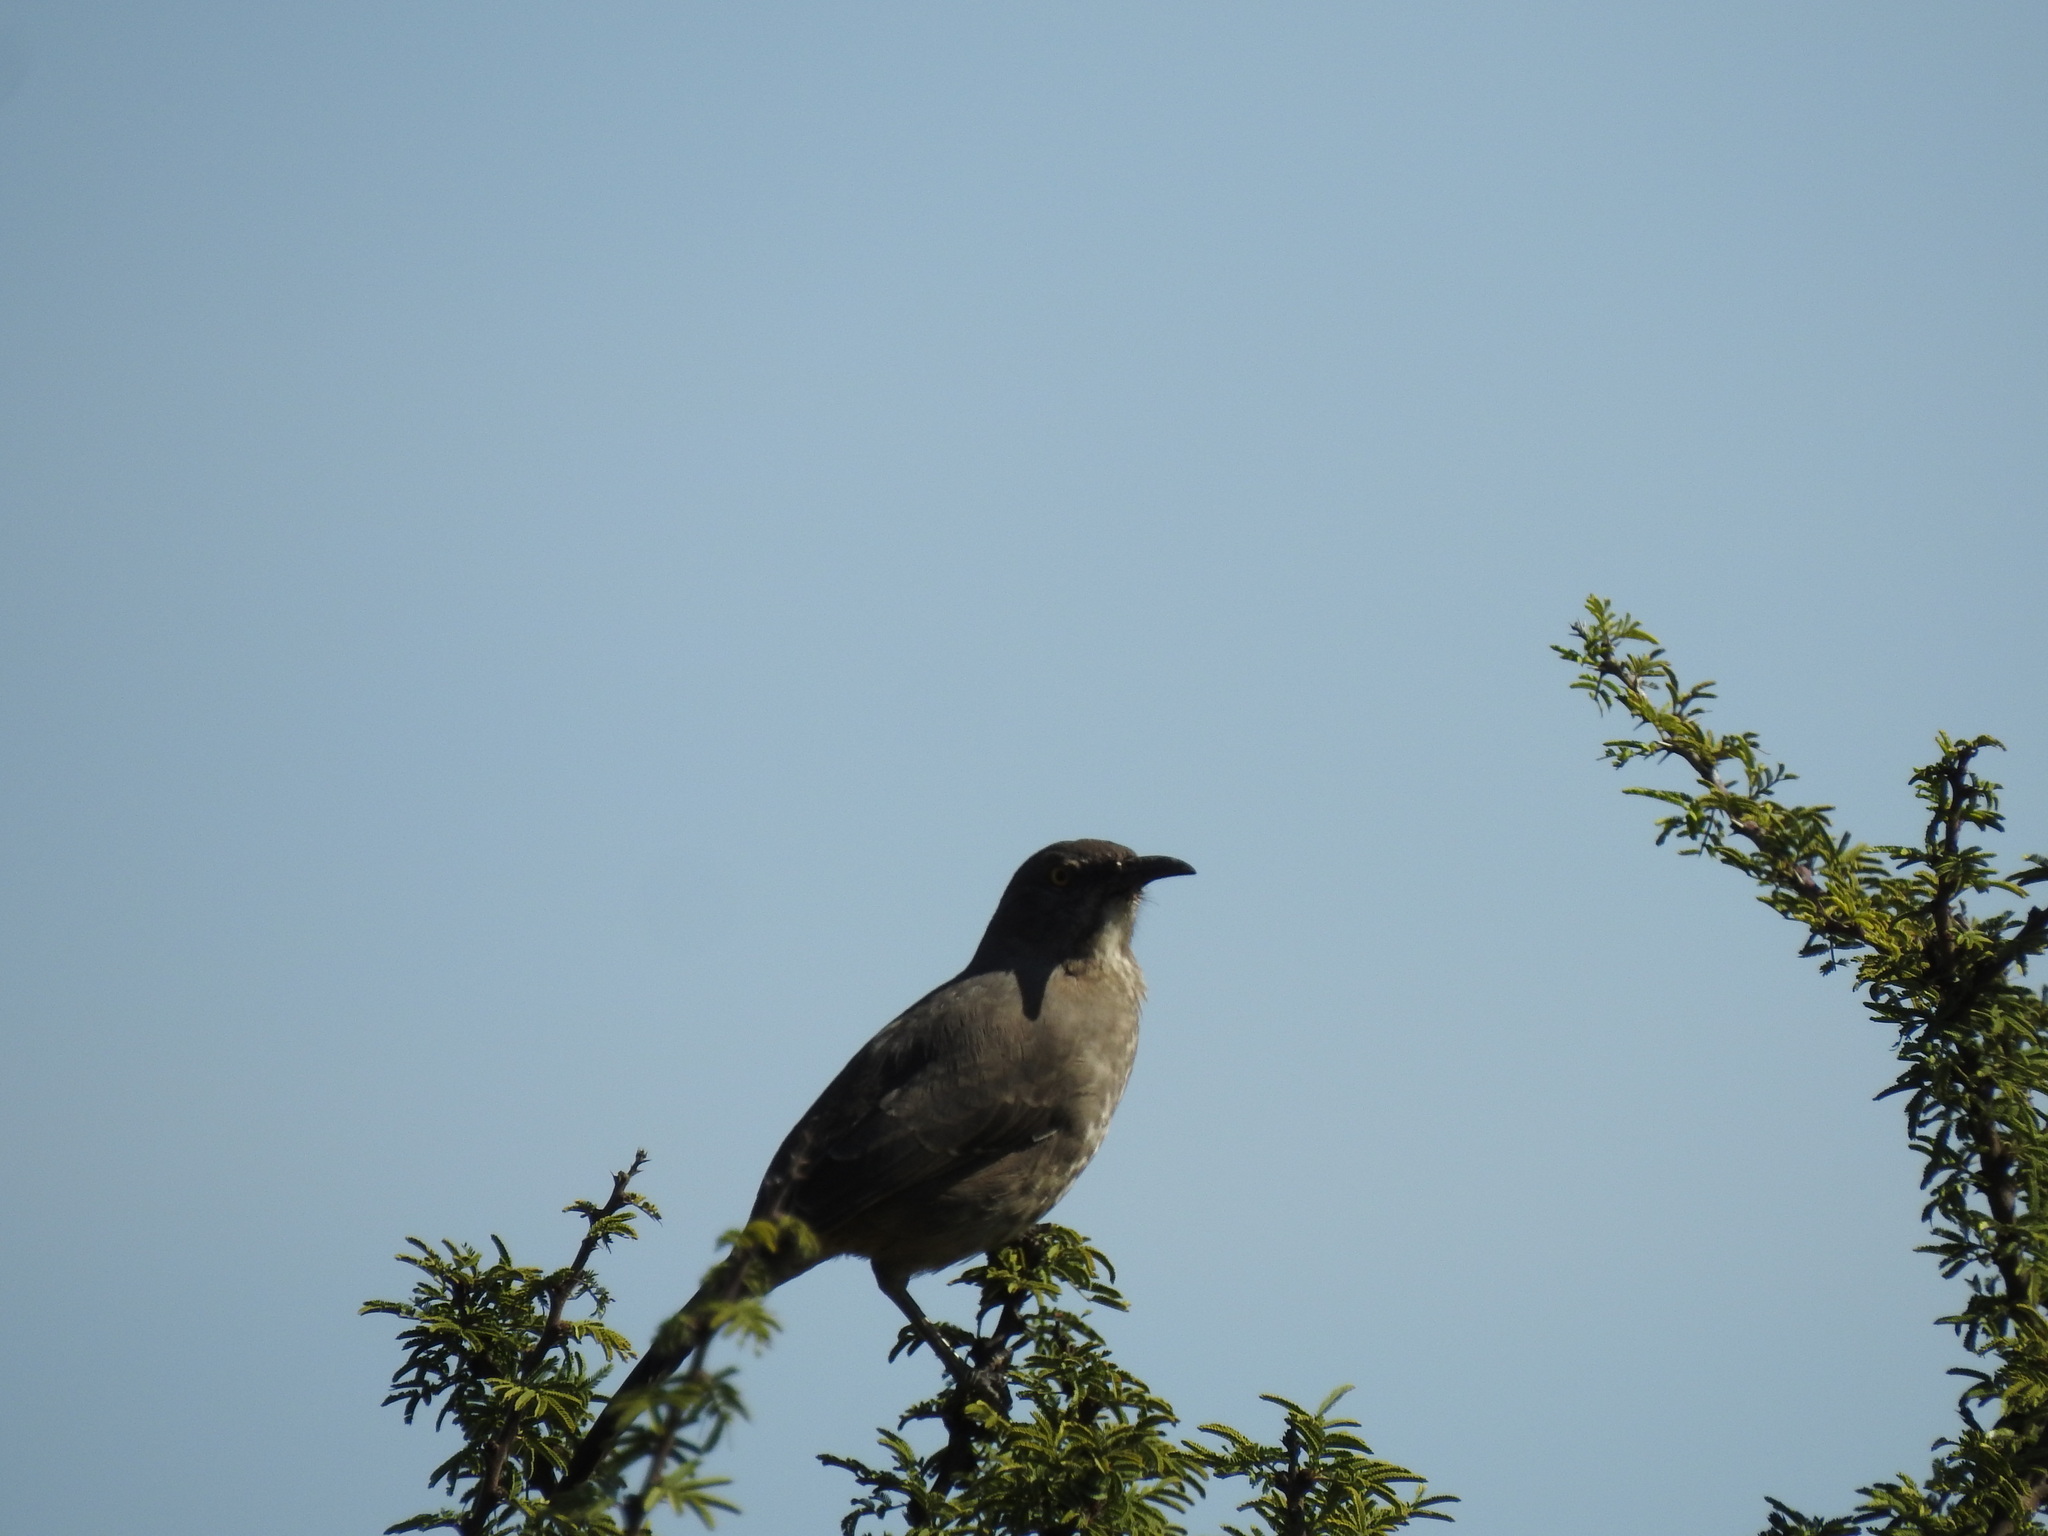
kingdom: Animalia
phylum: Chordata
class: Aves
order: Passeriformes
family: Mimidae
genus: Toxostoma
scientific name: Toxostoma curvirostre
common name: Curve-billed thrasher
